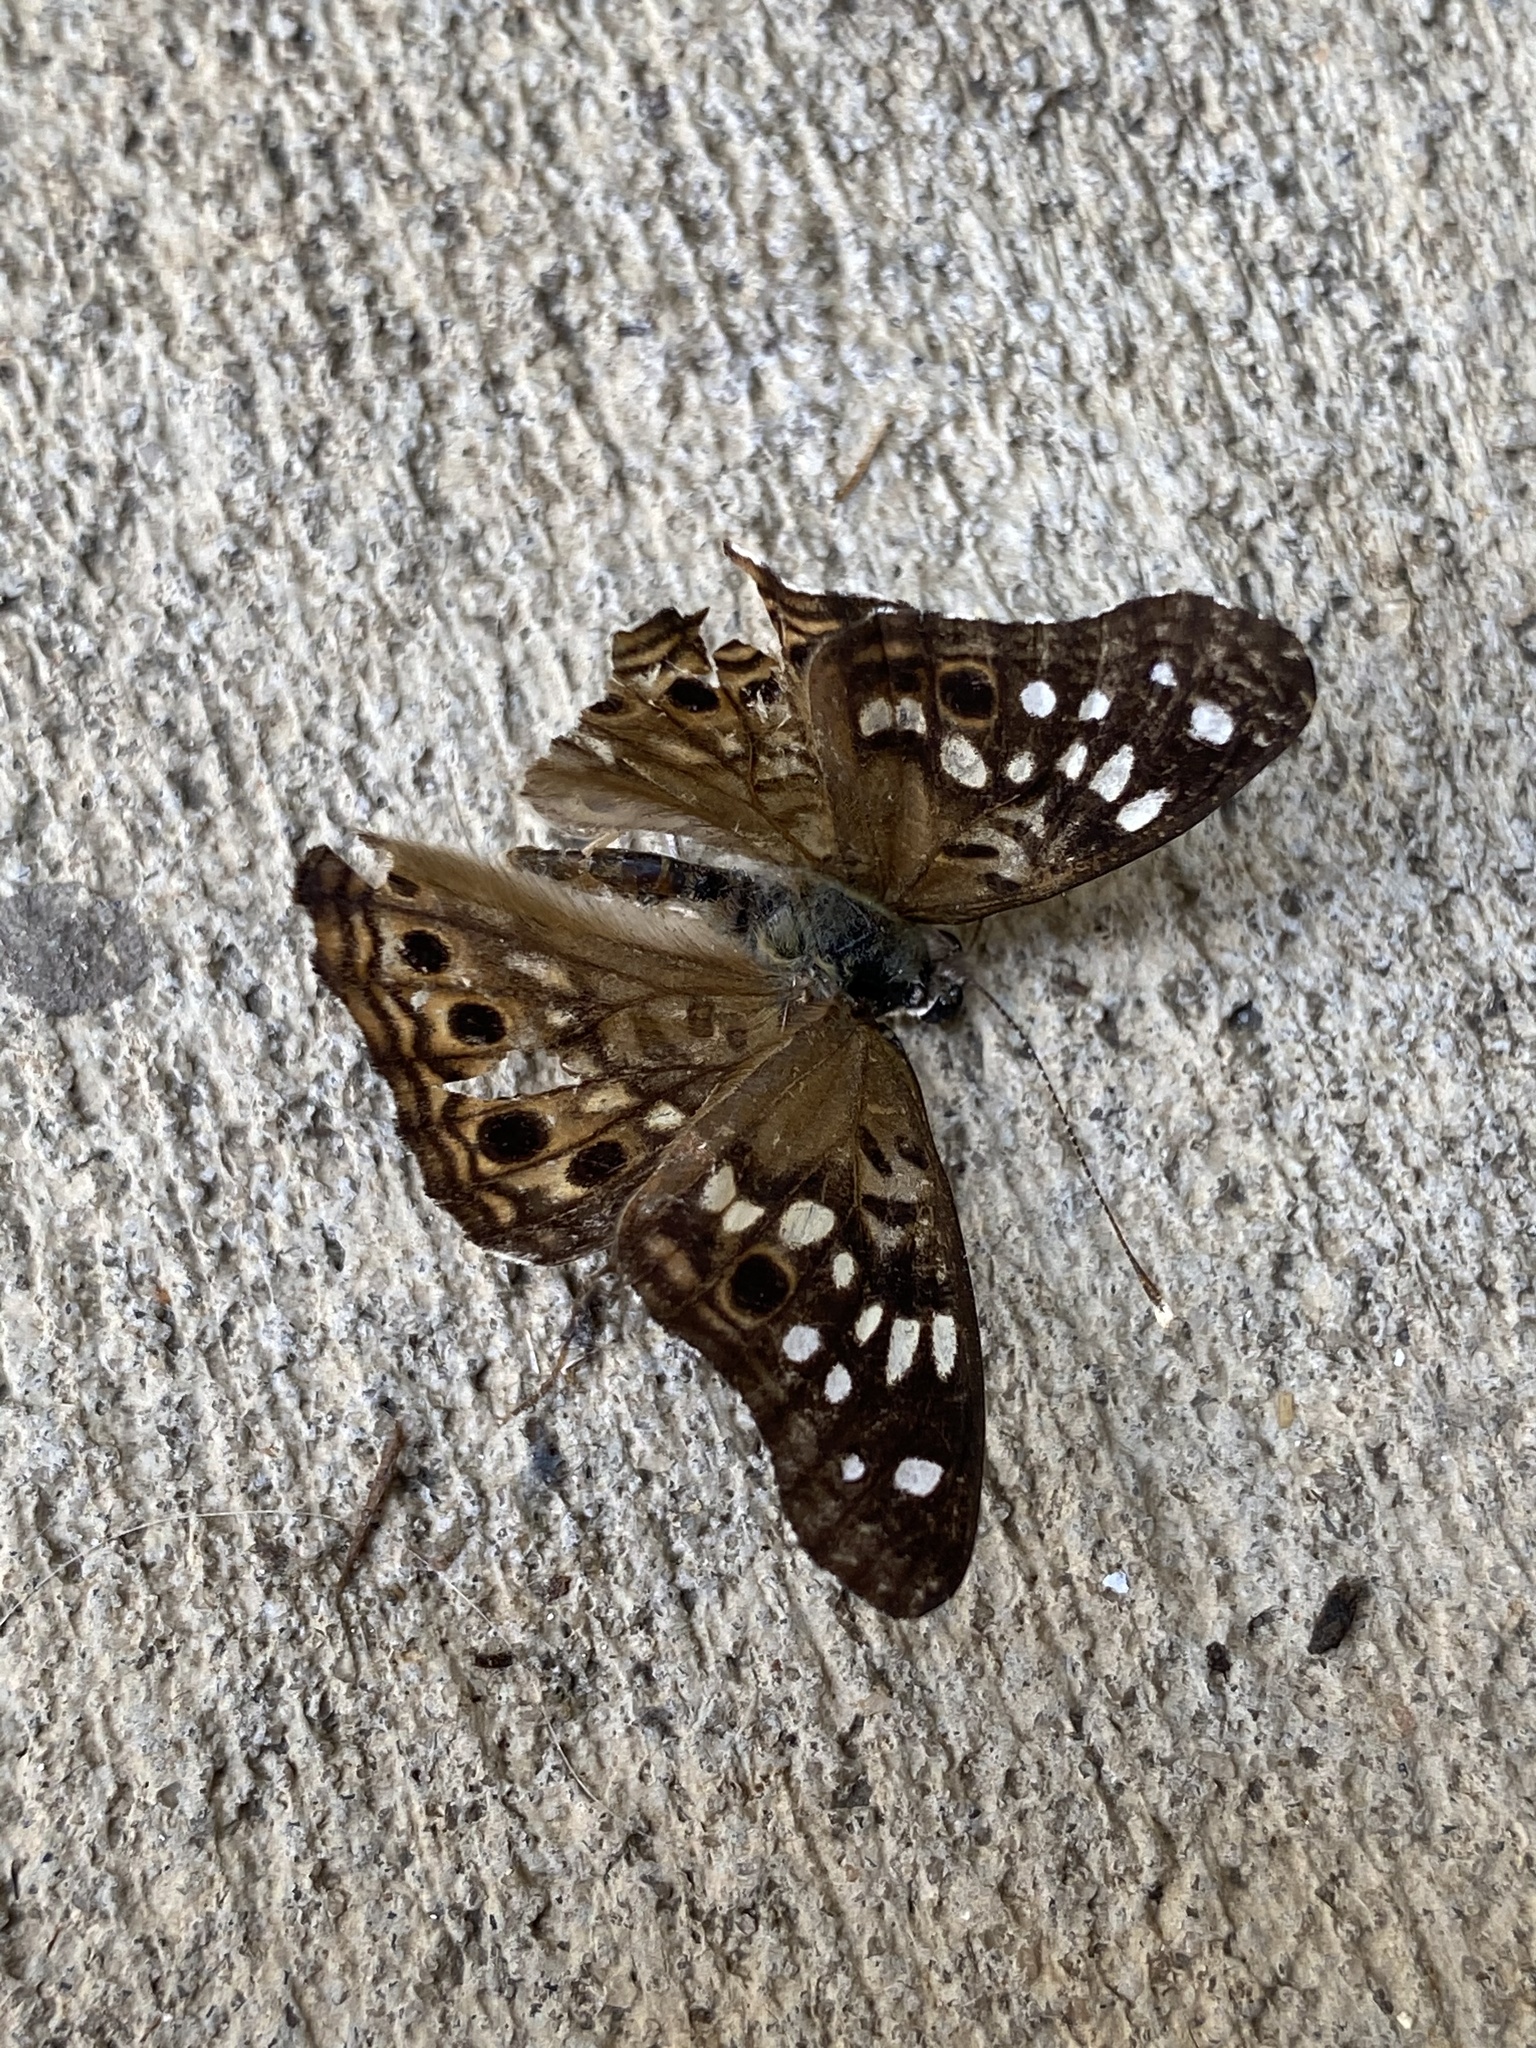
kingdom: Animalia
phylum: Arthropoda
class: Insecta
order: Lepidoptera
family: Nymphalidae
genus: Asterocampa
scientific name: Asterocampa celtis
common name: Hackberry emperor
